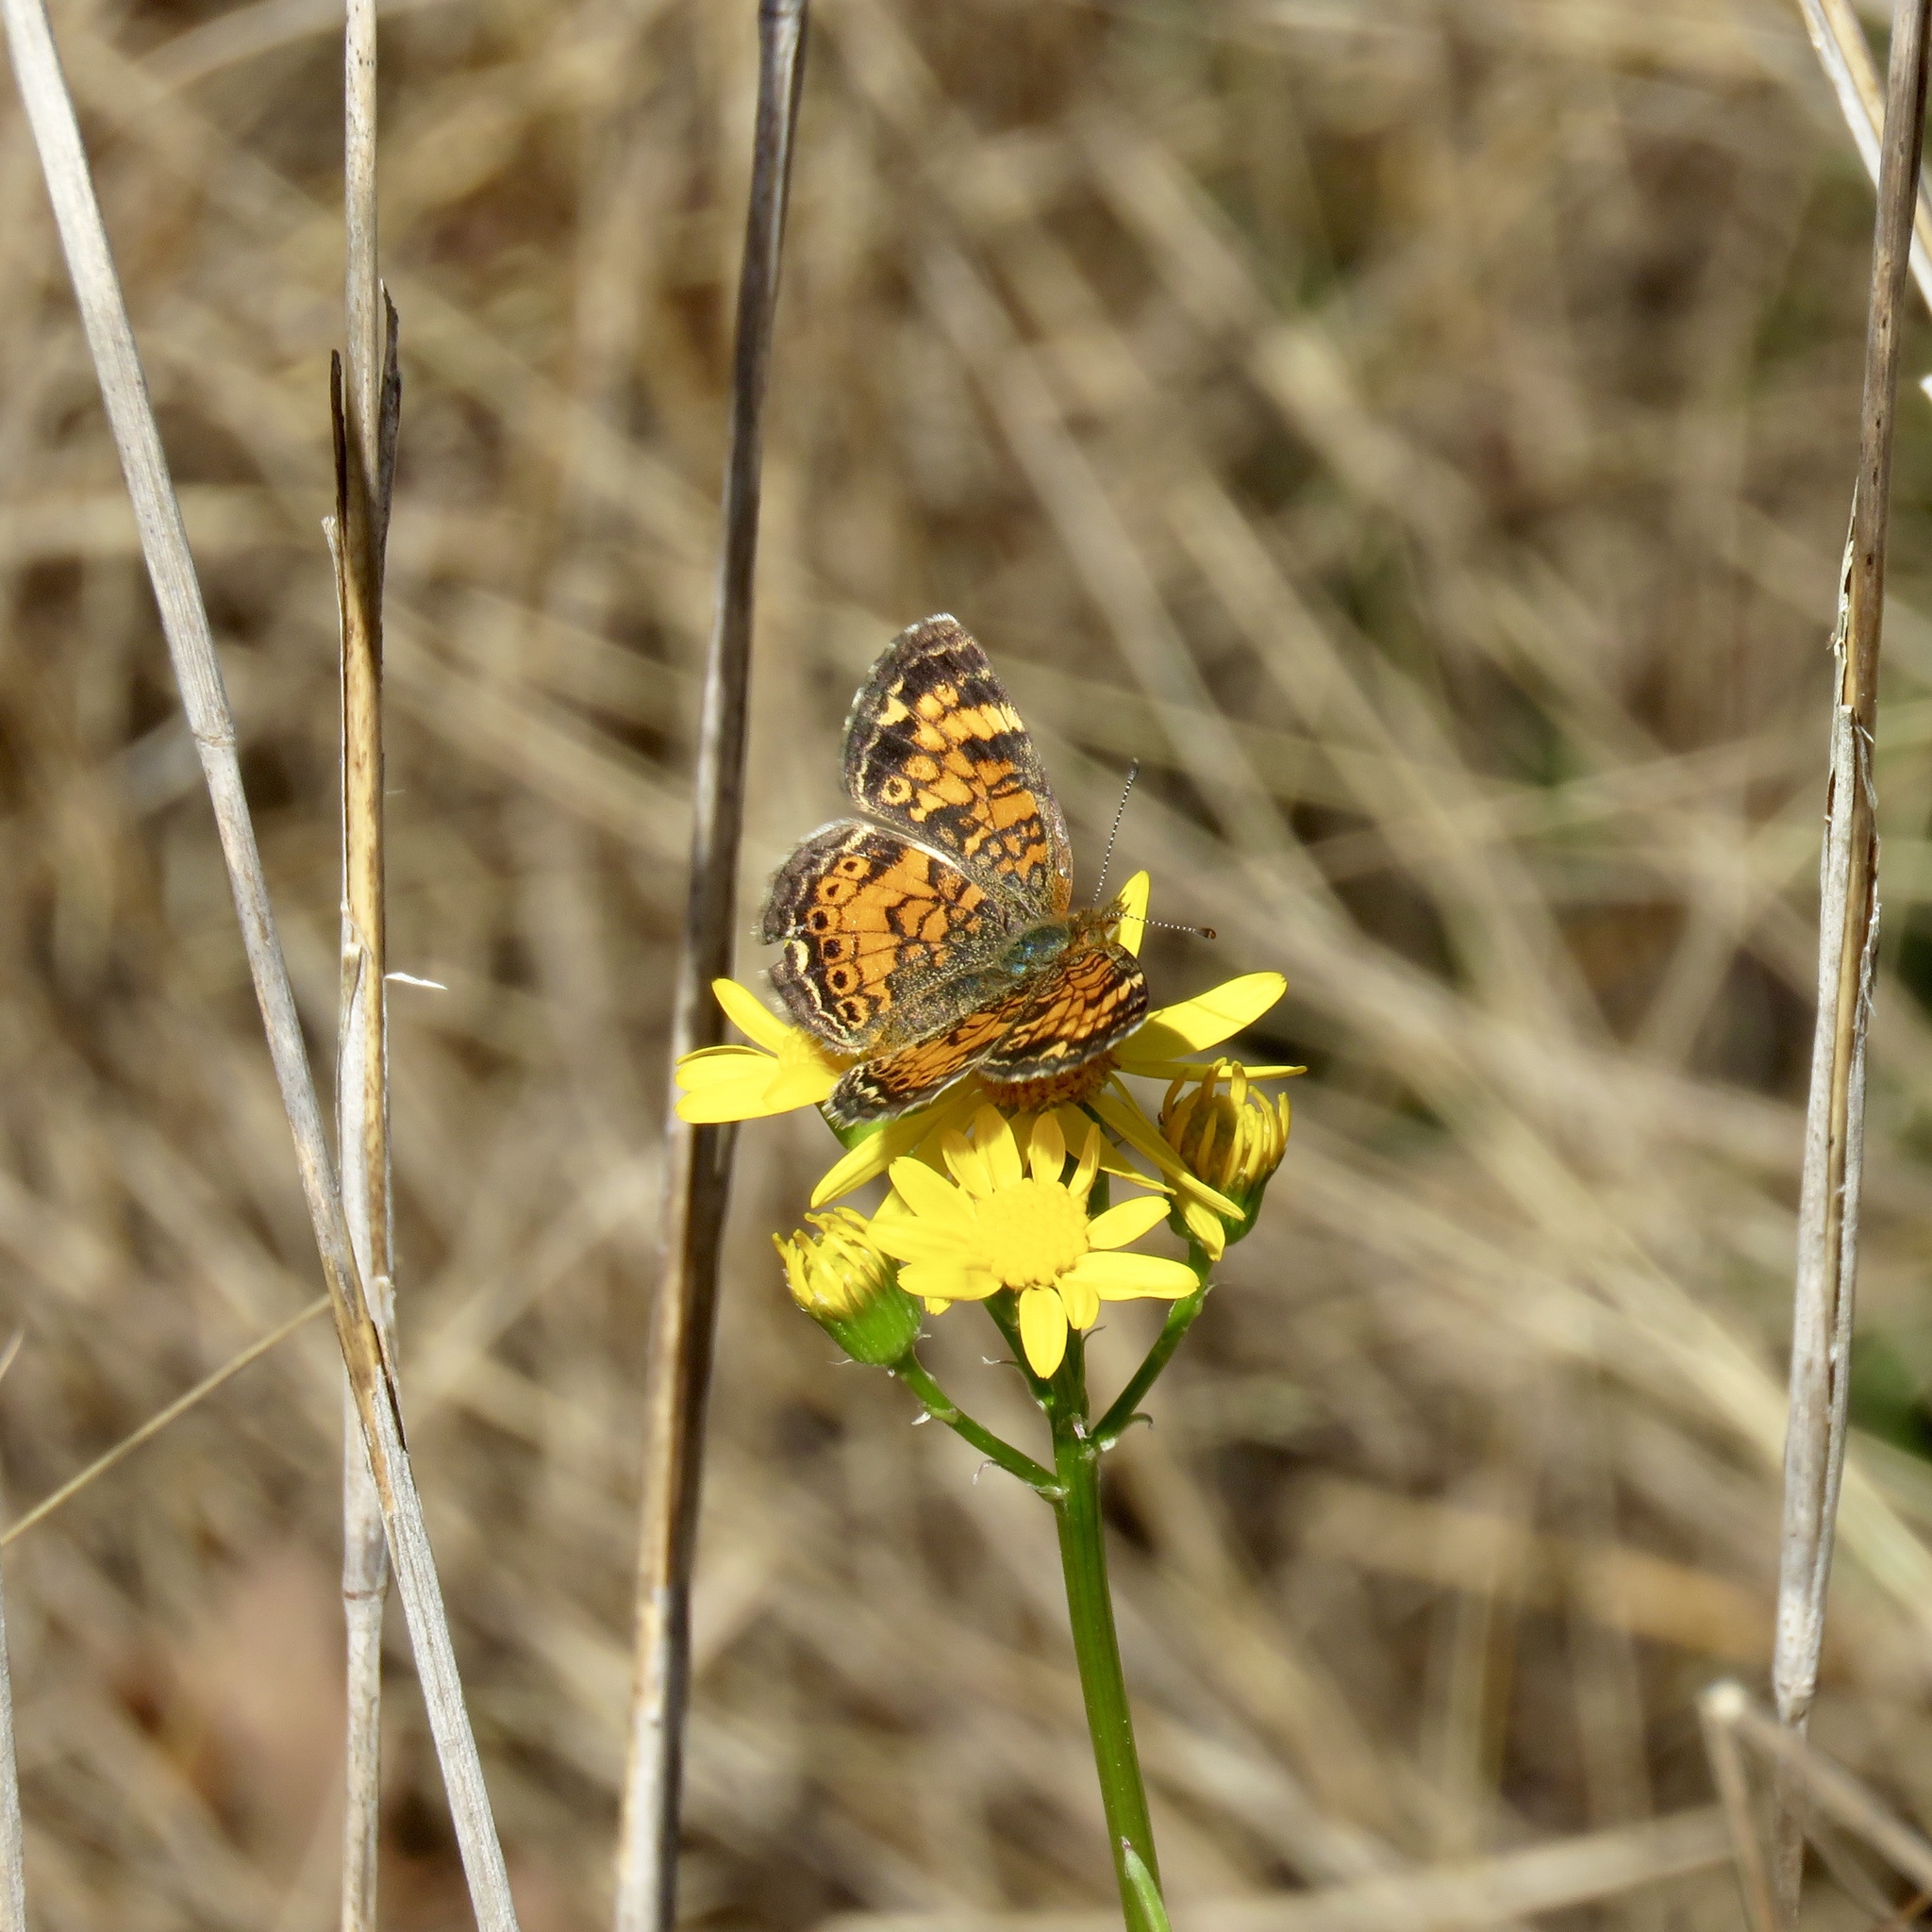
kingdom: Animalia
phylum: Arthropoda
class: Insecta
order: Lepidoptera
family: Nymphalidae
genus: Phyciodes
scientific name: Phyciodes tharos
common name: Pearl crescent
